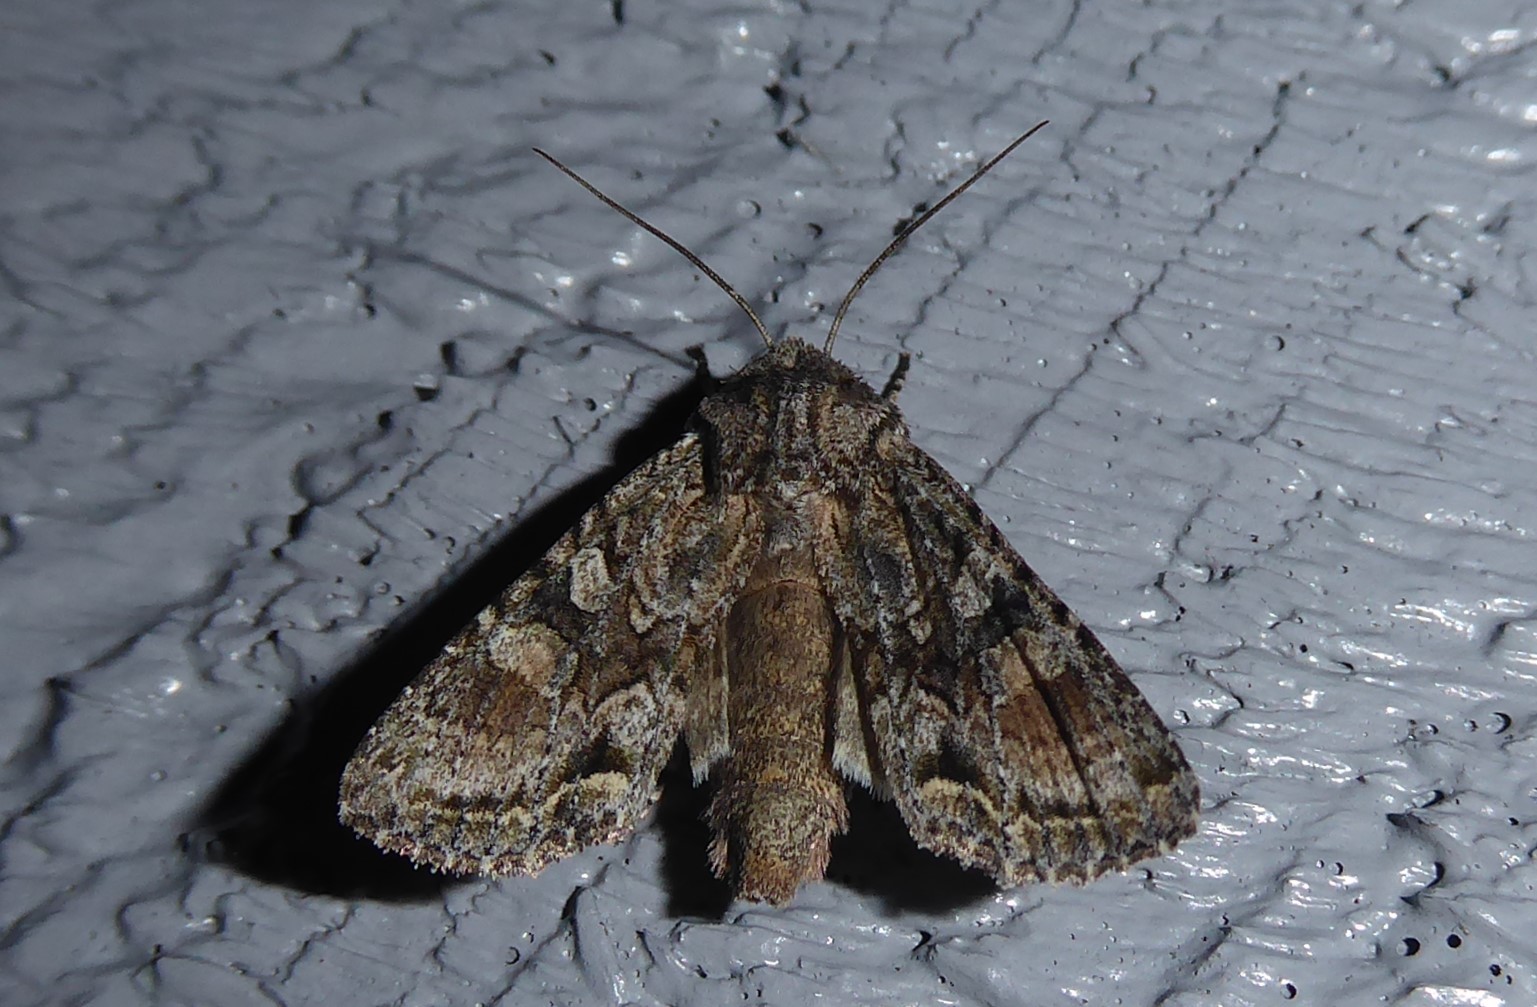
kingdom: Animalia
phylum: Arthropoda
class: Insecta
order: Lepidoptera
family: Noctuidae
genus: Ichneutica
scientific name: Ichneutica mutans
